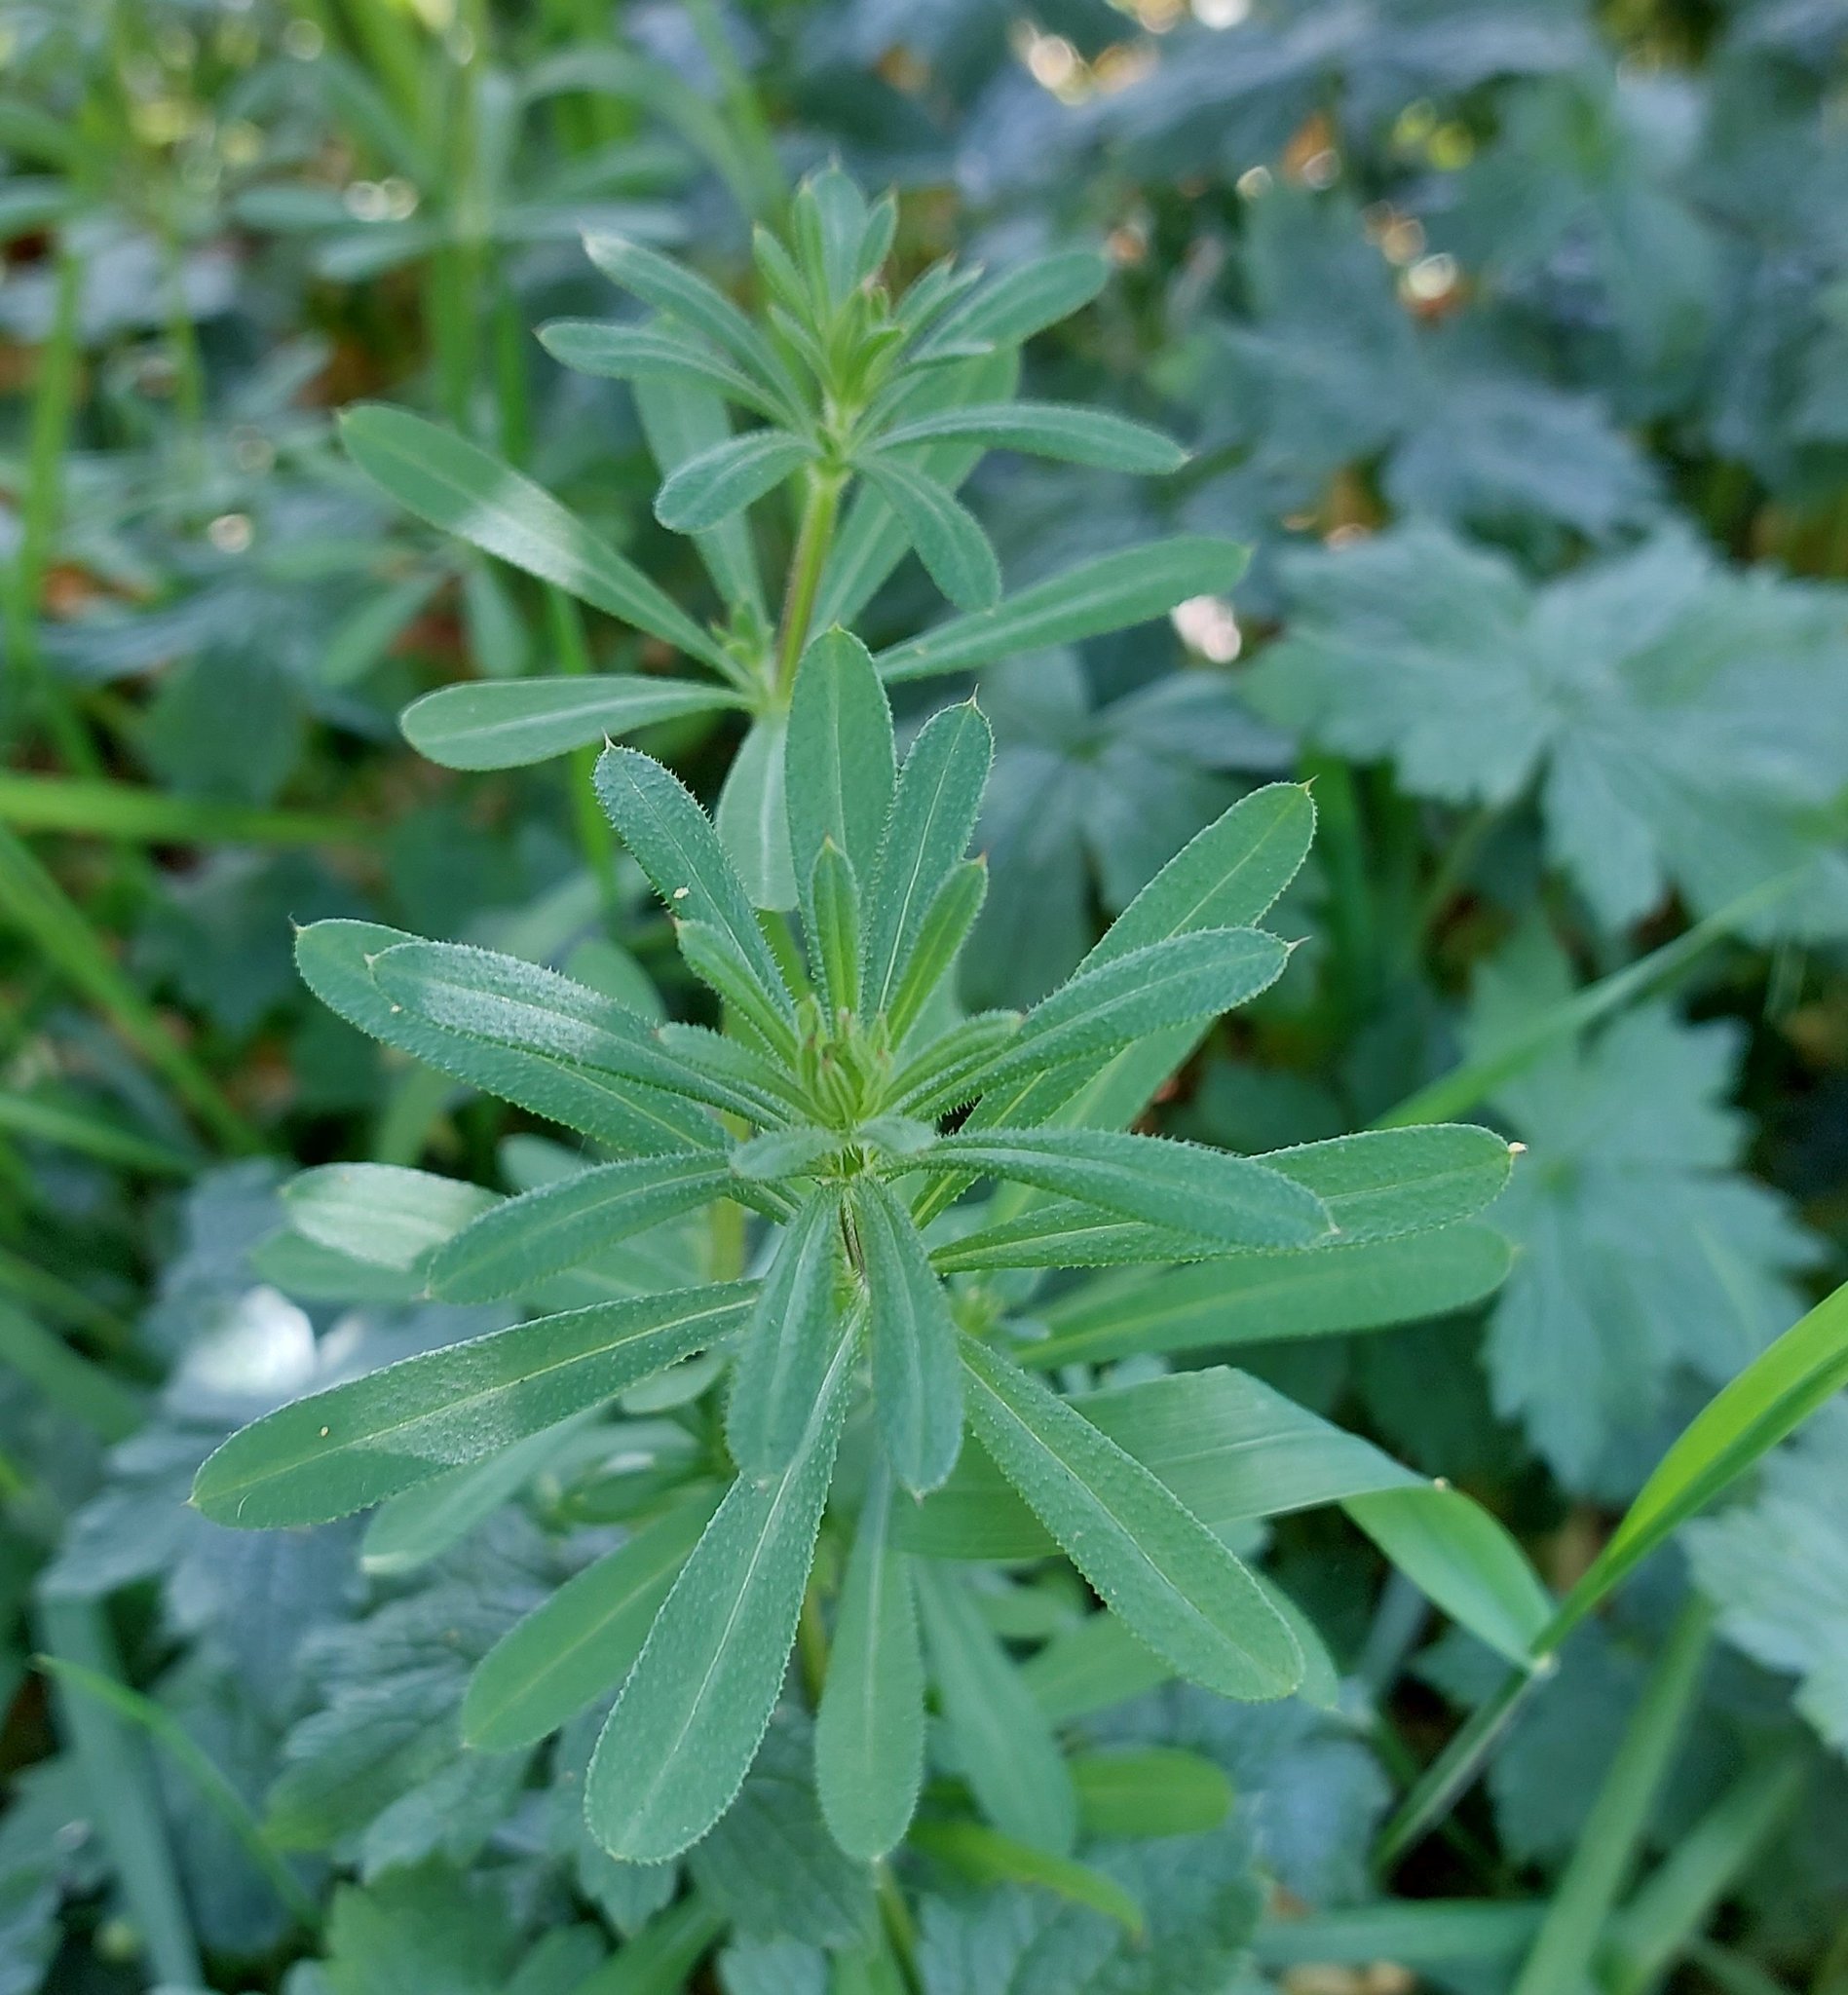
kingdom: Plantae
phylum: Tracheophyta
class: Magnoliopsida
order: Gentianales
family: Rubiaceae
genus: Galium
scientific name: Galium aparine
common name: Cleavers
